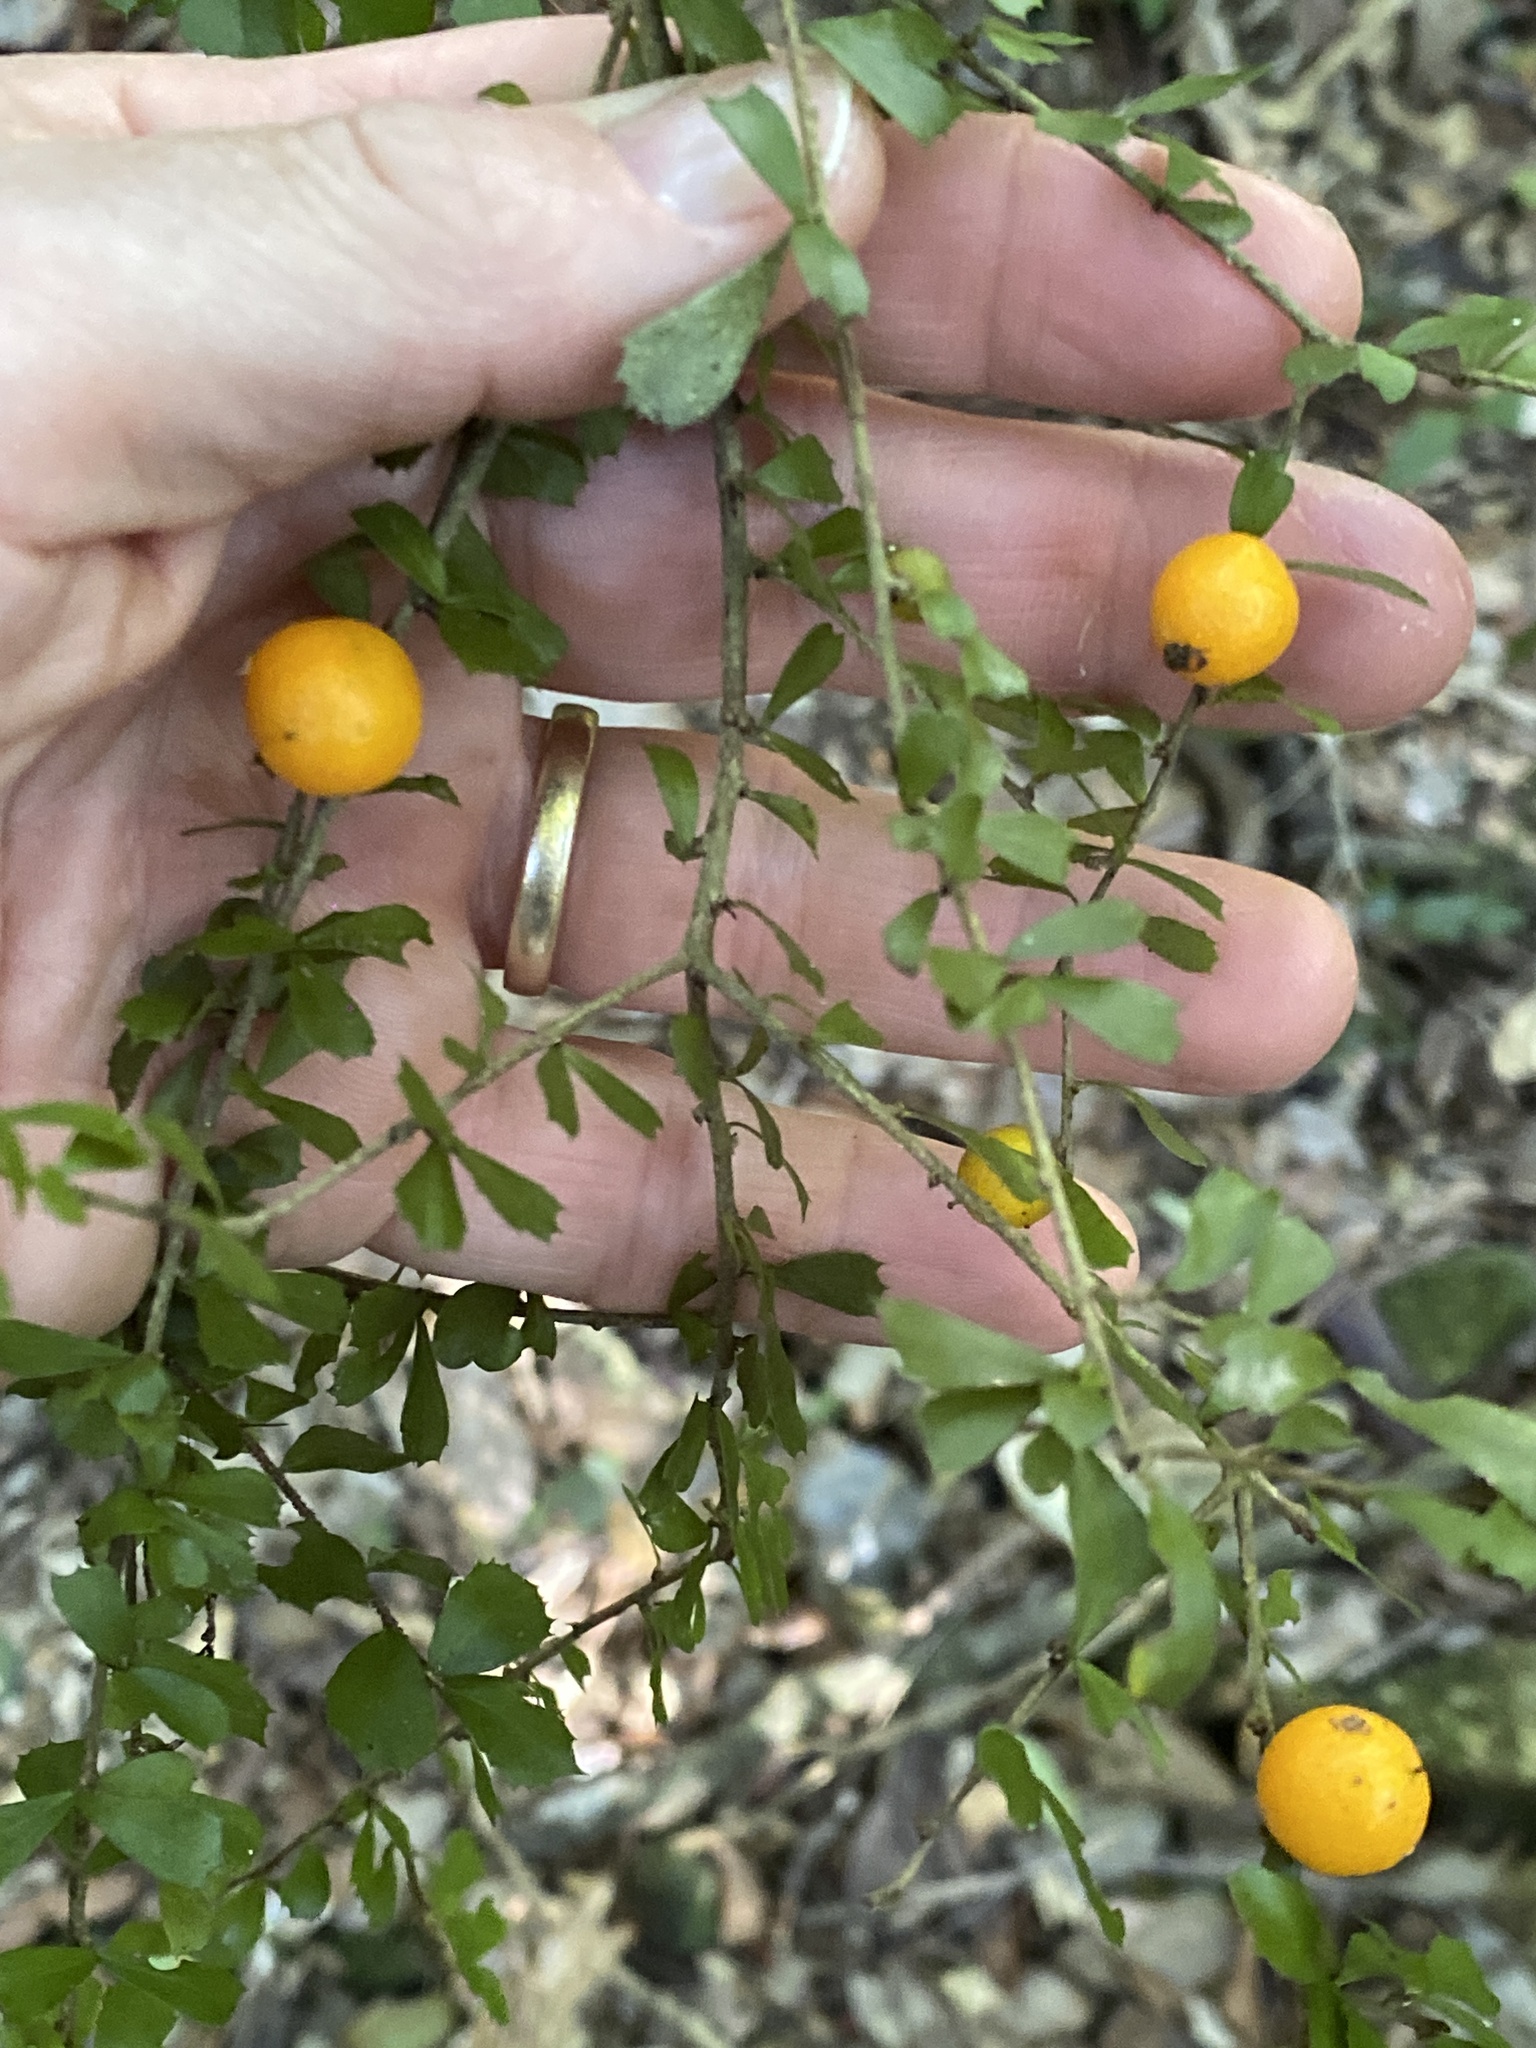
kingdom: Plantae
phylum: Tracheophyta
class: Magnoliopsida
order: Apiales
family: Pittosporaceae
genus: Pittosporum
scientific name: Pittosporum multiflorum
